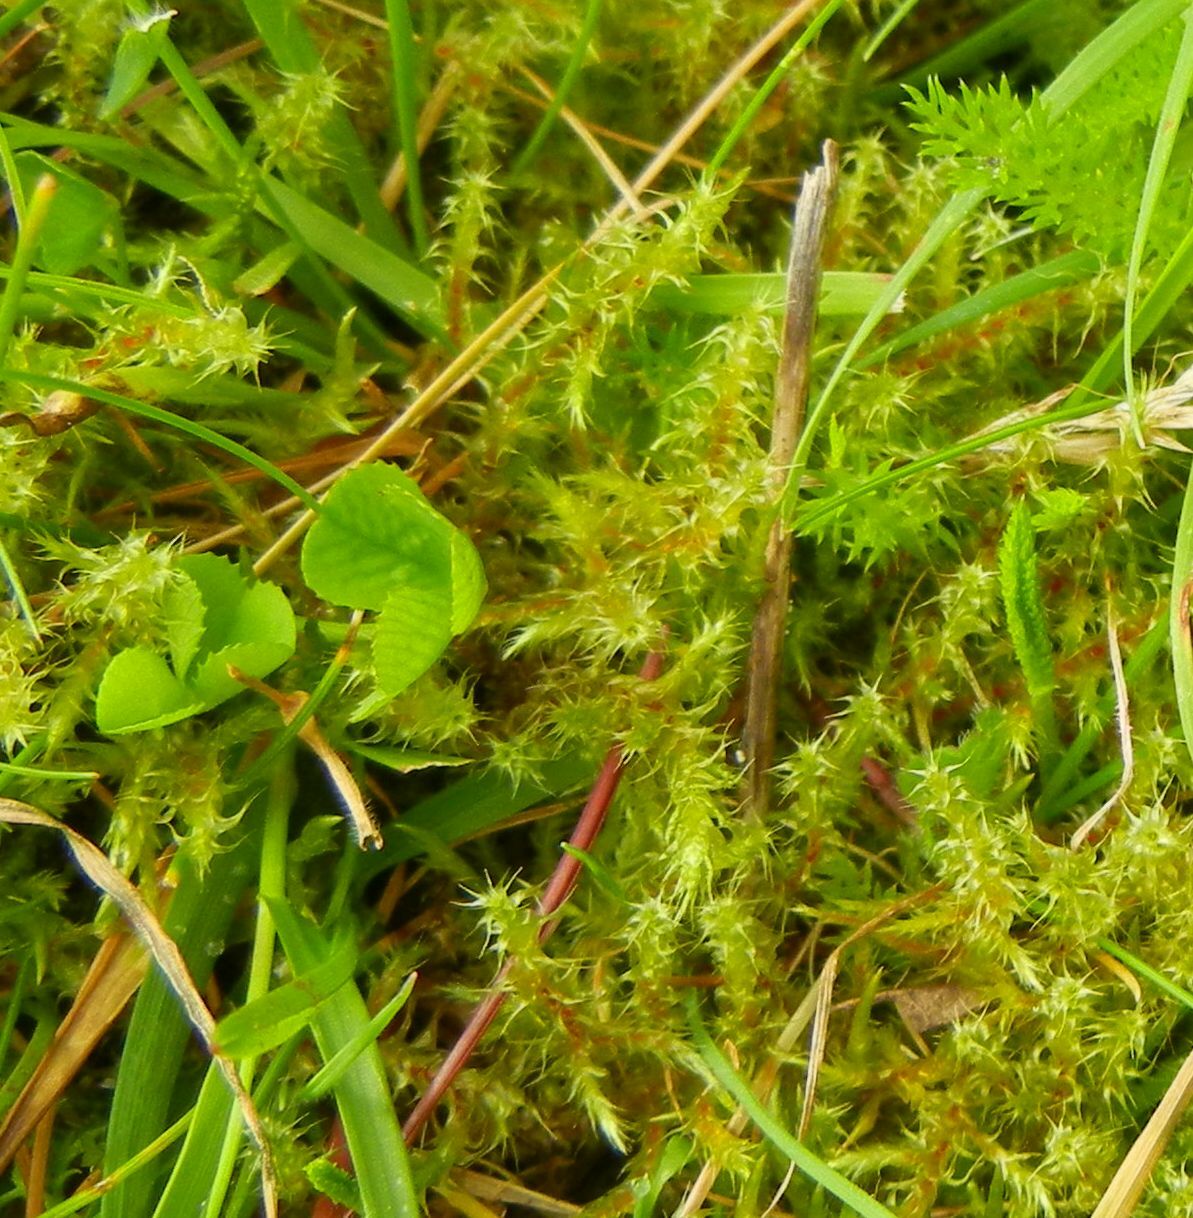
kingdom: Plantae
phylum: Bryophyta
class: Bryopsida
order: Hypnales
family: Hylocomiaceae
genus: Rhytidiadelphus
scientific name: Rhytidiadelphus squarrosus
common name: Springy turf-moss
